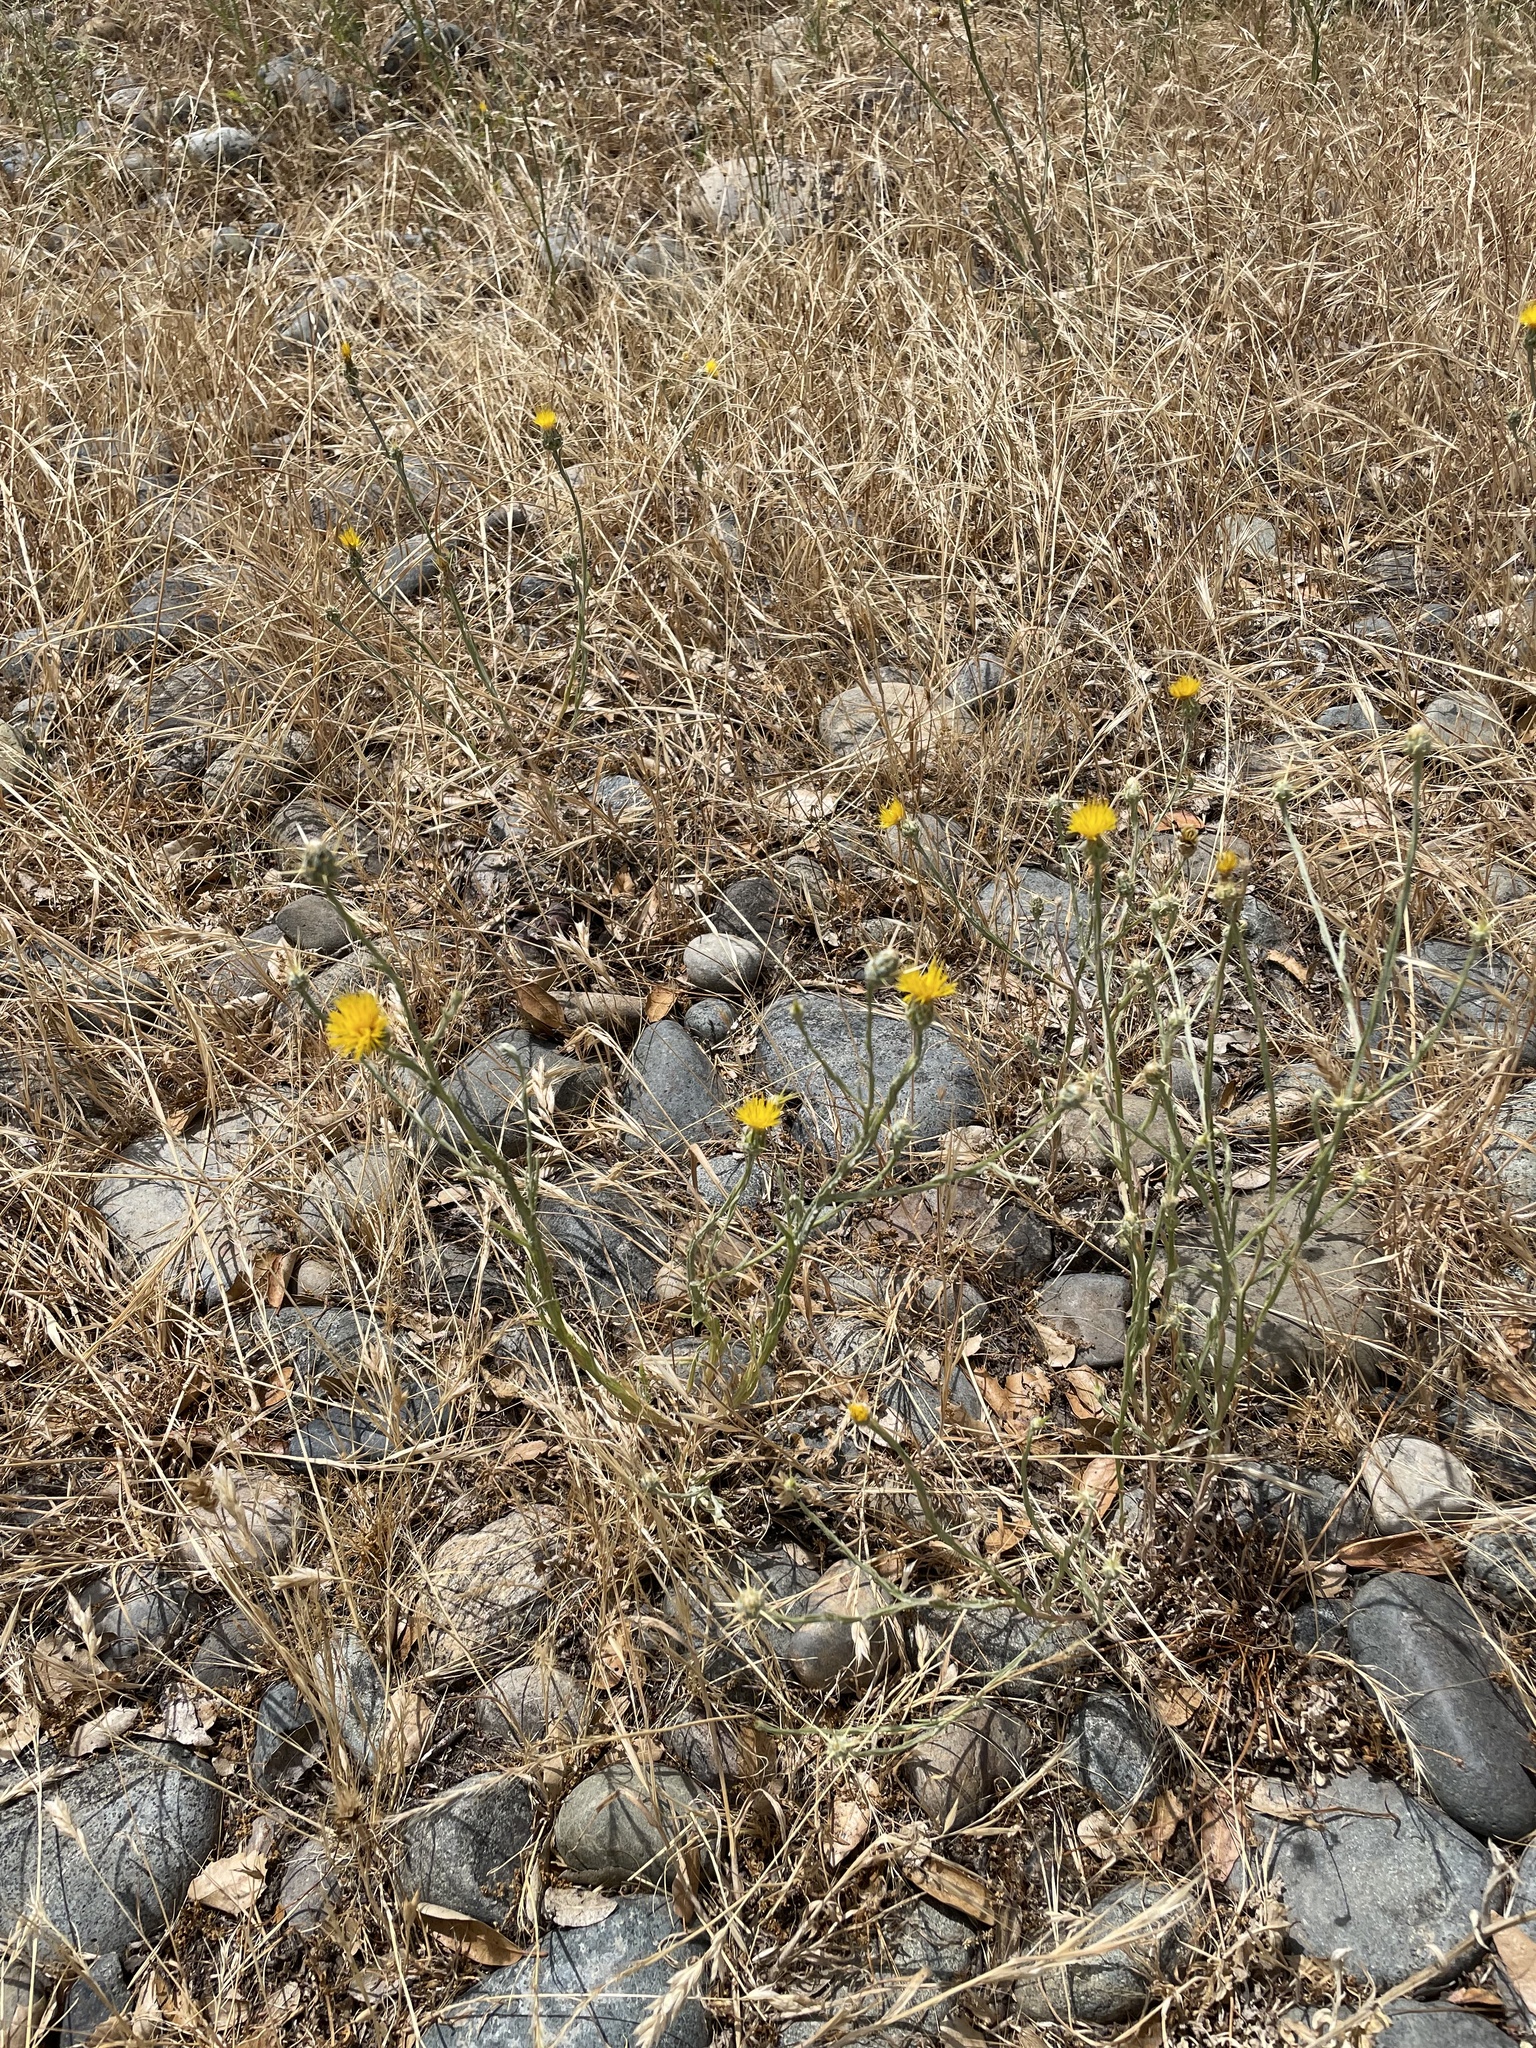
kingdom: Plantae
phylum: Tracheophyta
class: Magnoliopsida
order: Asterales
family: Asteraceae
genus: Centaurea
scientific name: Centaurea solstitialis
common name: Yellow star-thistle
